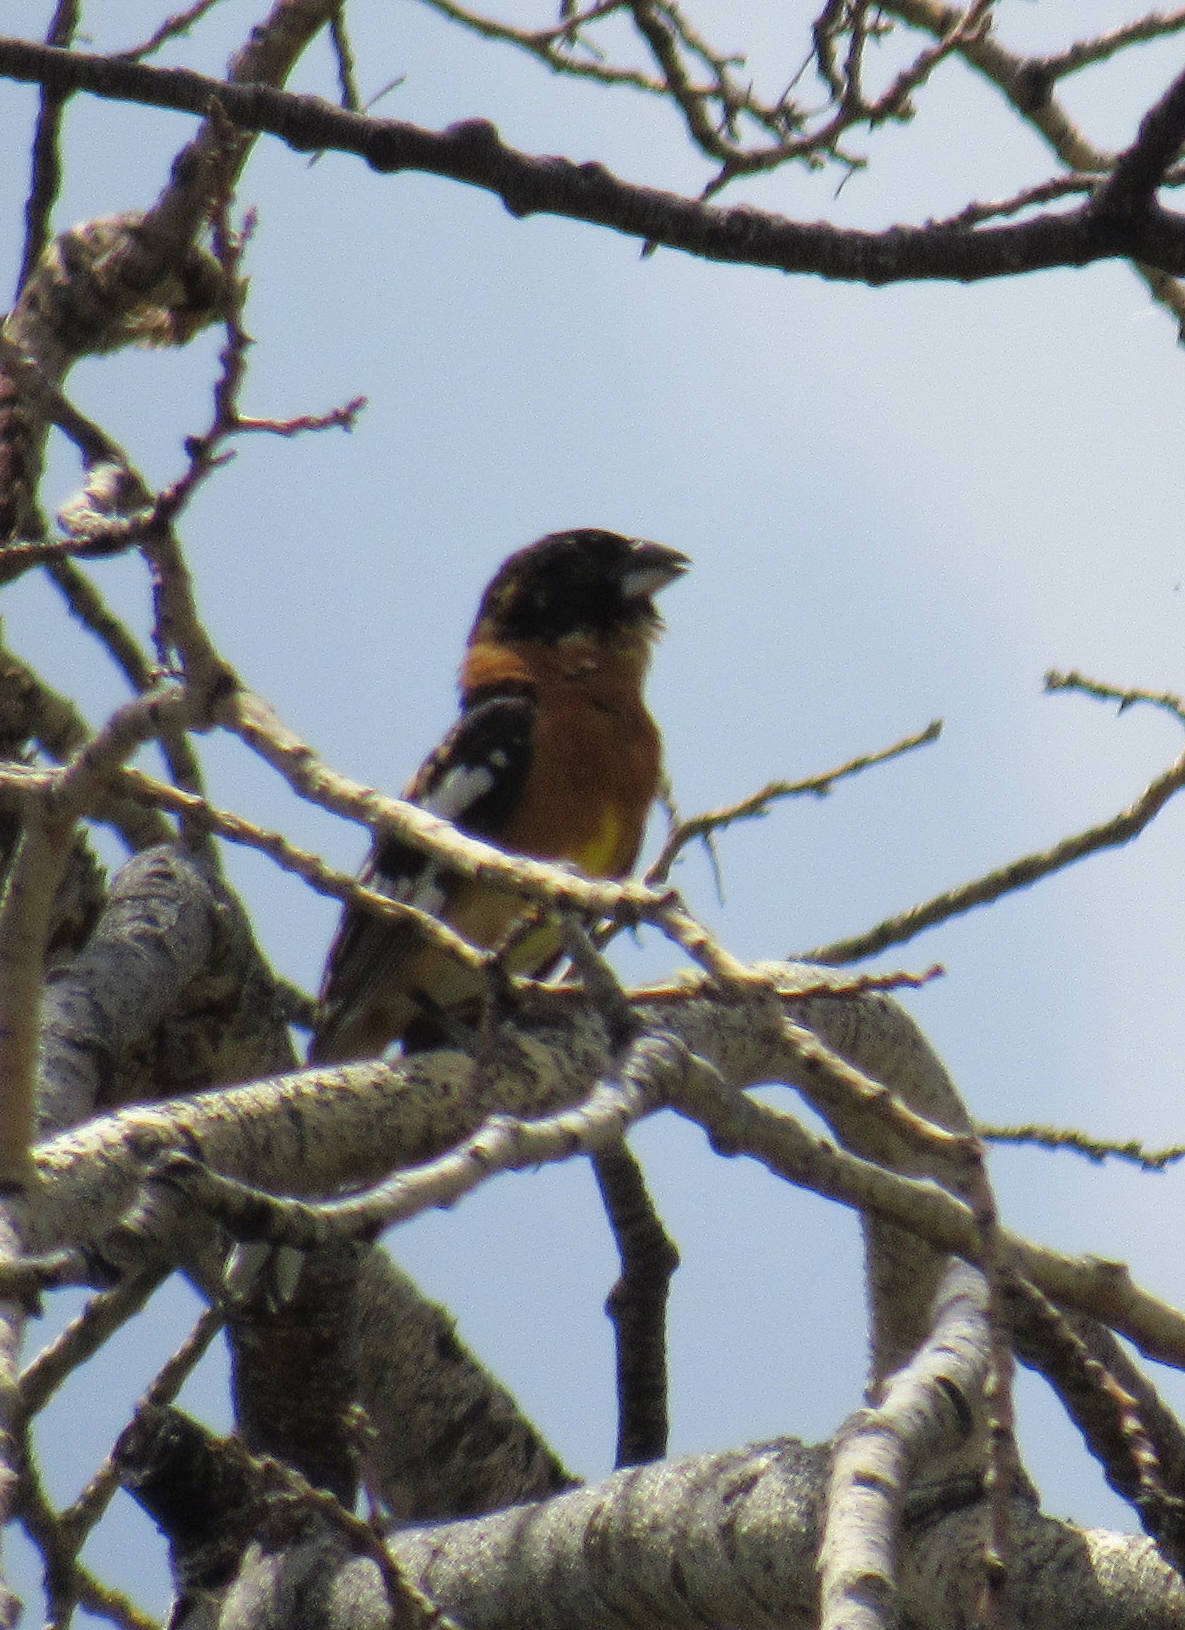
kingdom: Animalia
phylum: Chordata
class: Aves
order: Passeriformes
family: Cardinalidae
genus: Pheucticus
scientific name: Pheucticus melanocephalus
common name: Black-headed grosbeak
